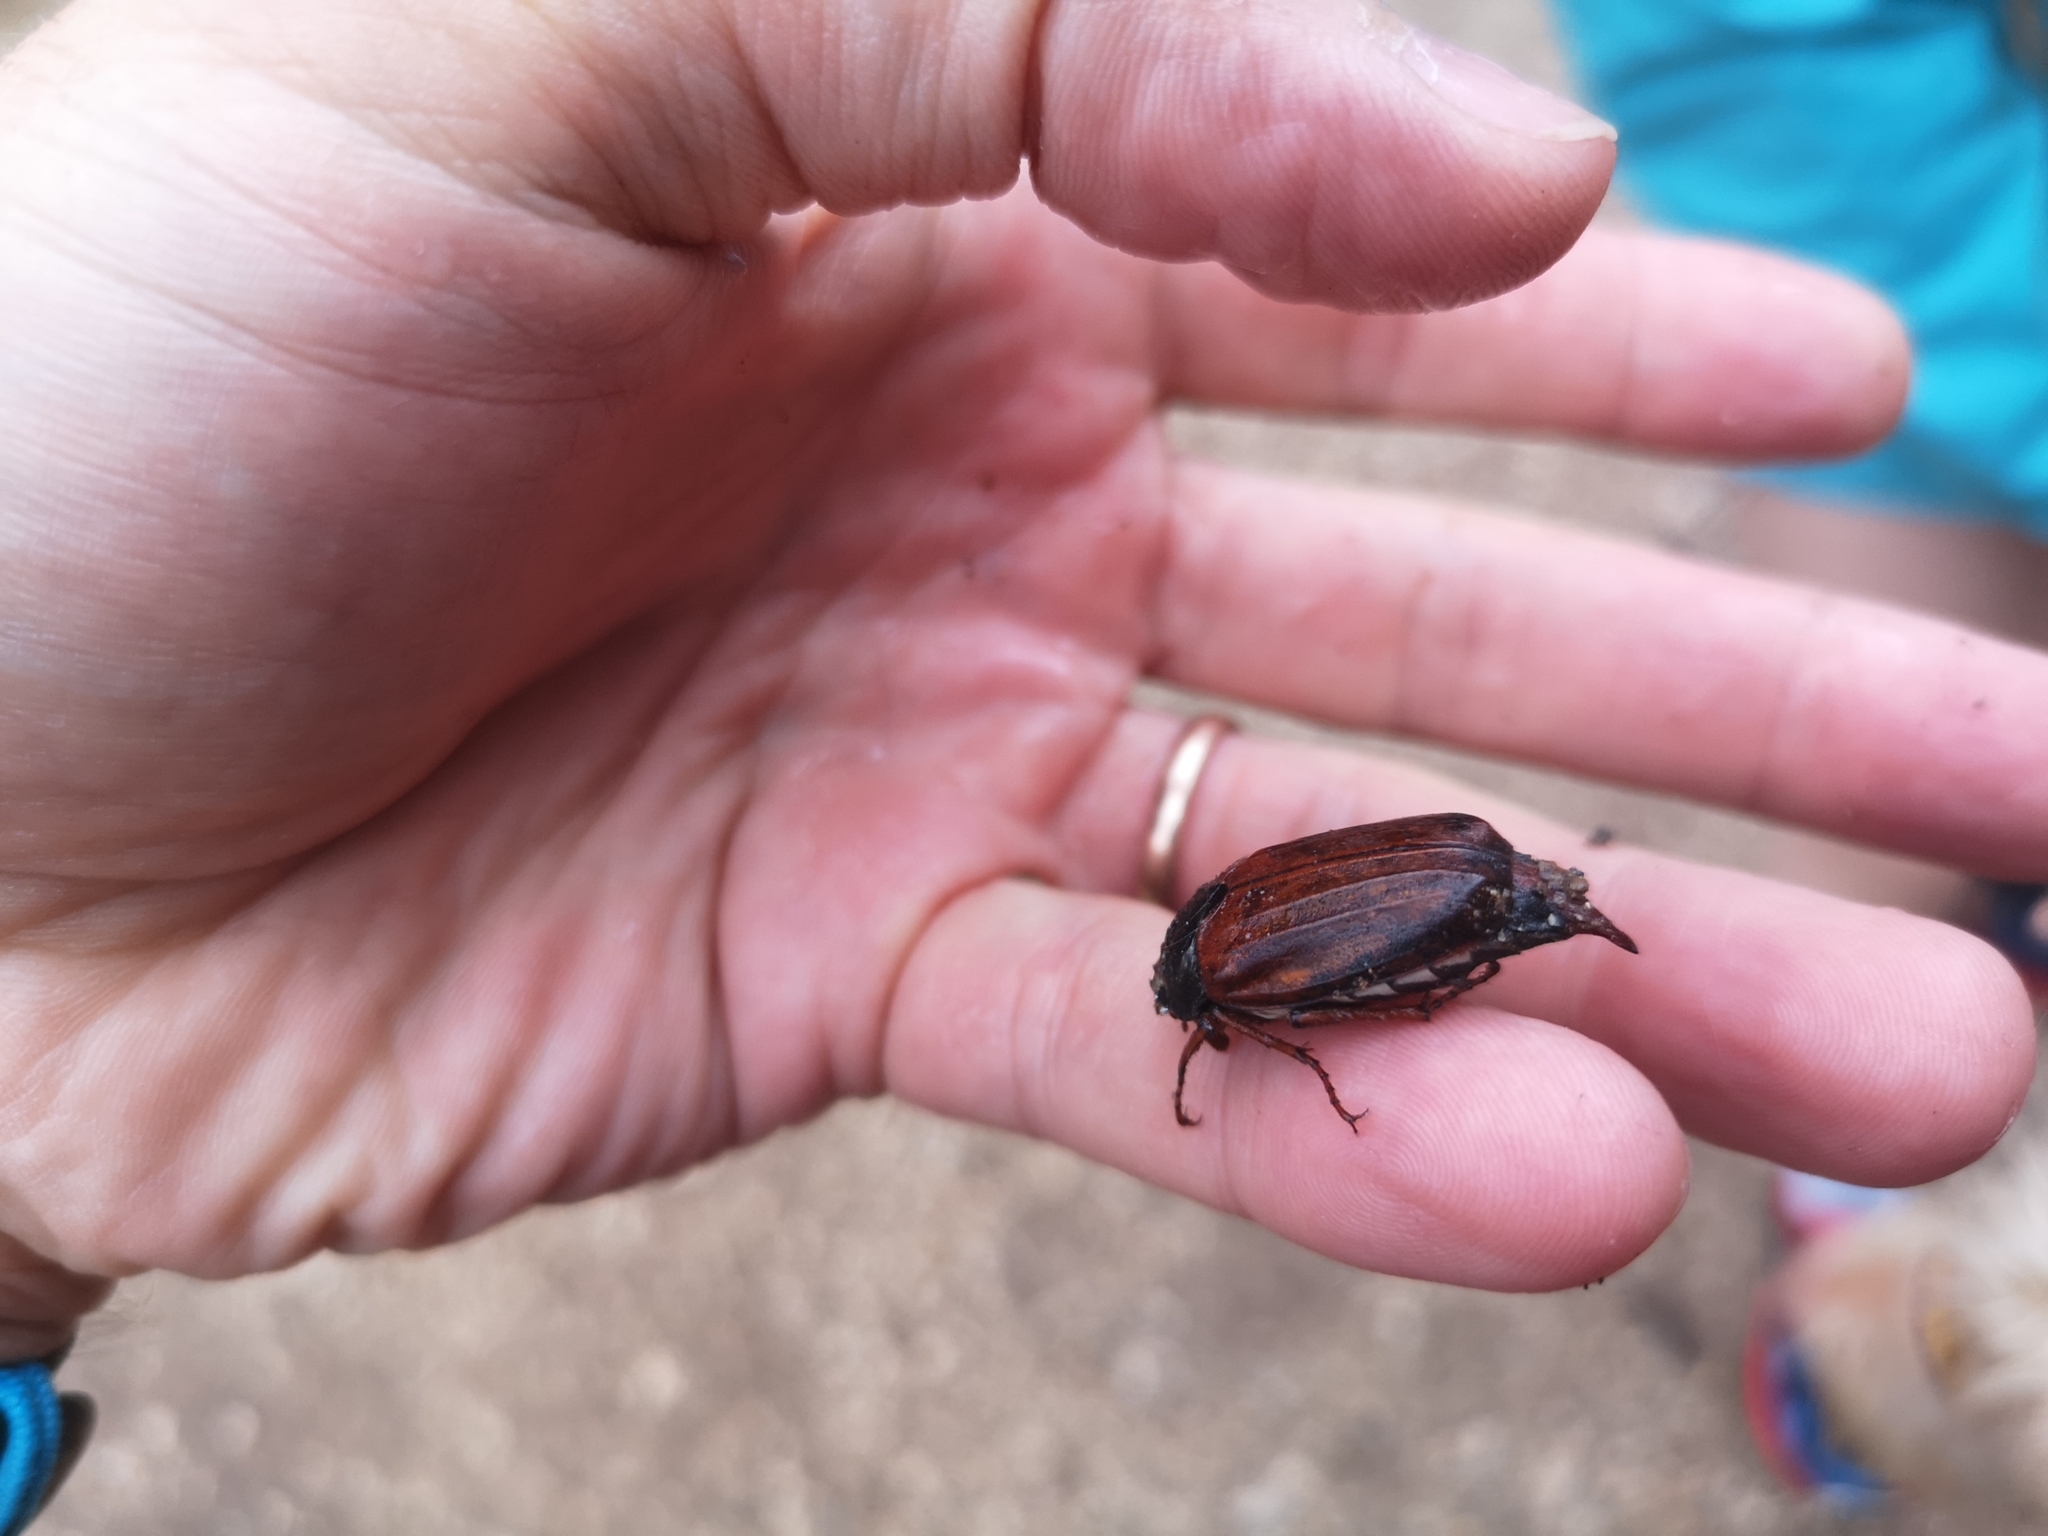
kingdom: Animalia
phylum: Arthropoda
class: Insecta
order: Coleoptera
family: Scarabaeidae
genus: Melolontha
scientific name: Melolontha melolontha
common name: Cockchafer maybeetle
